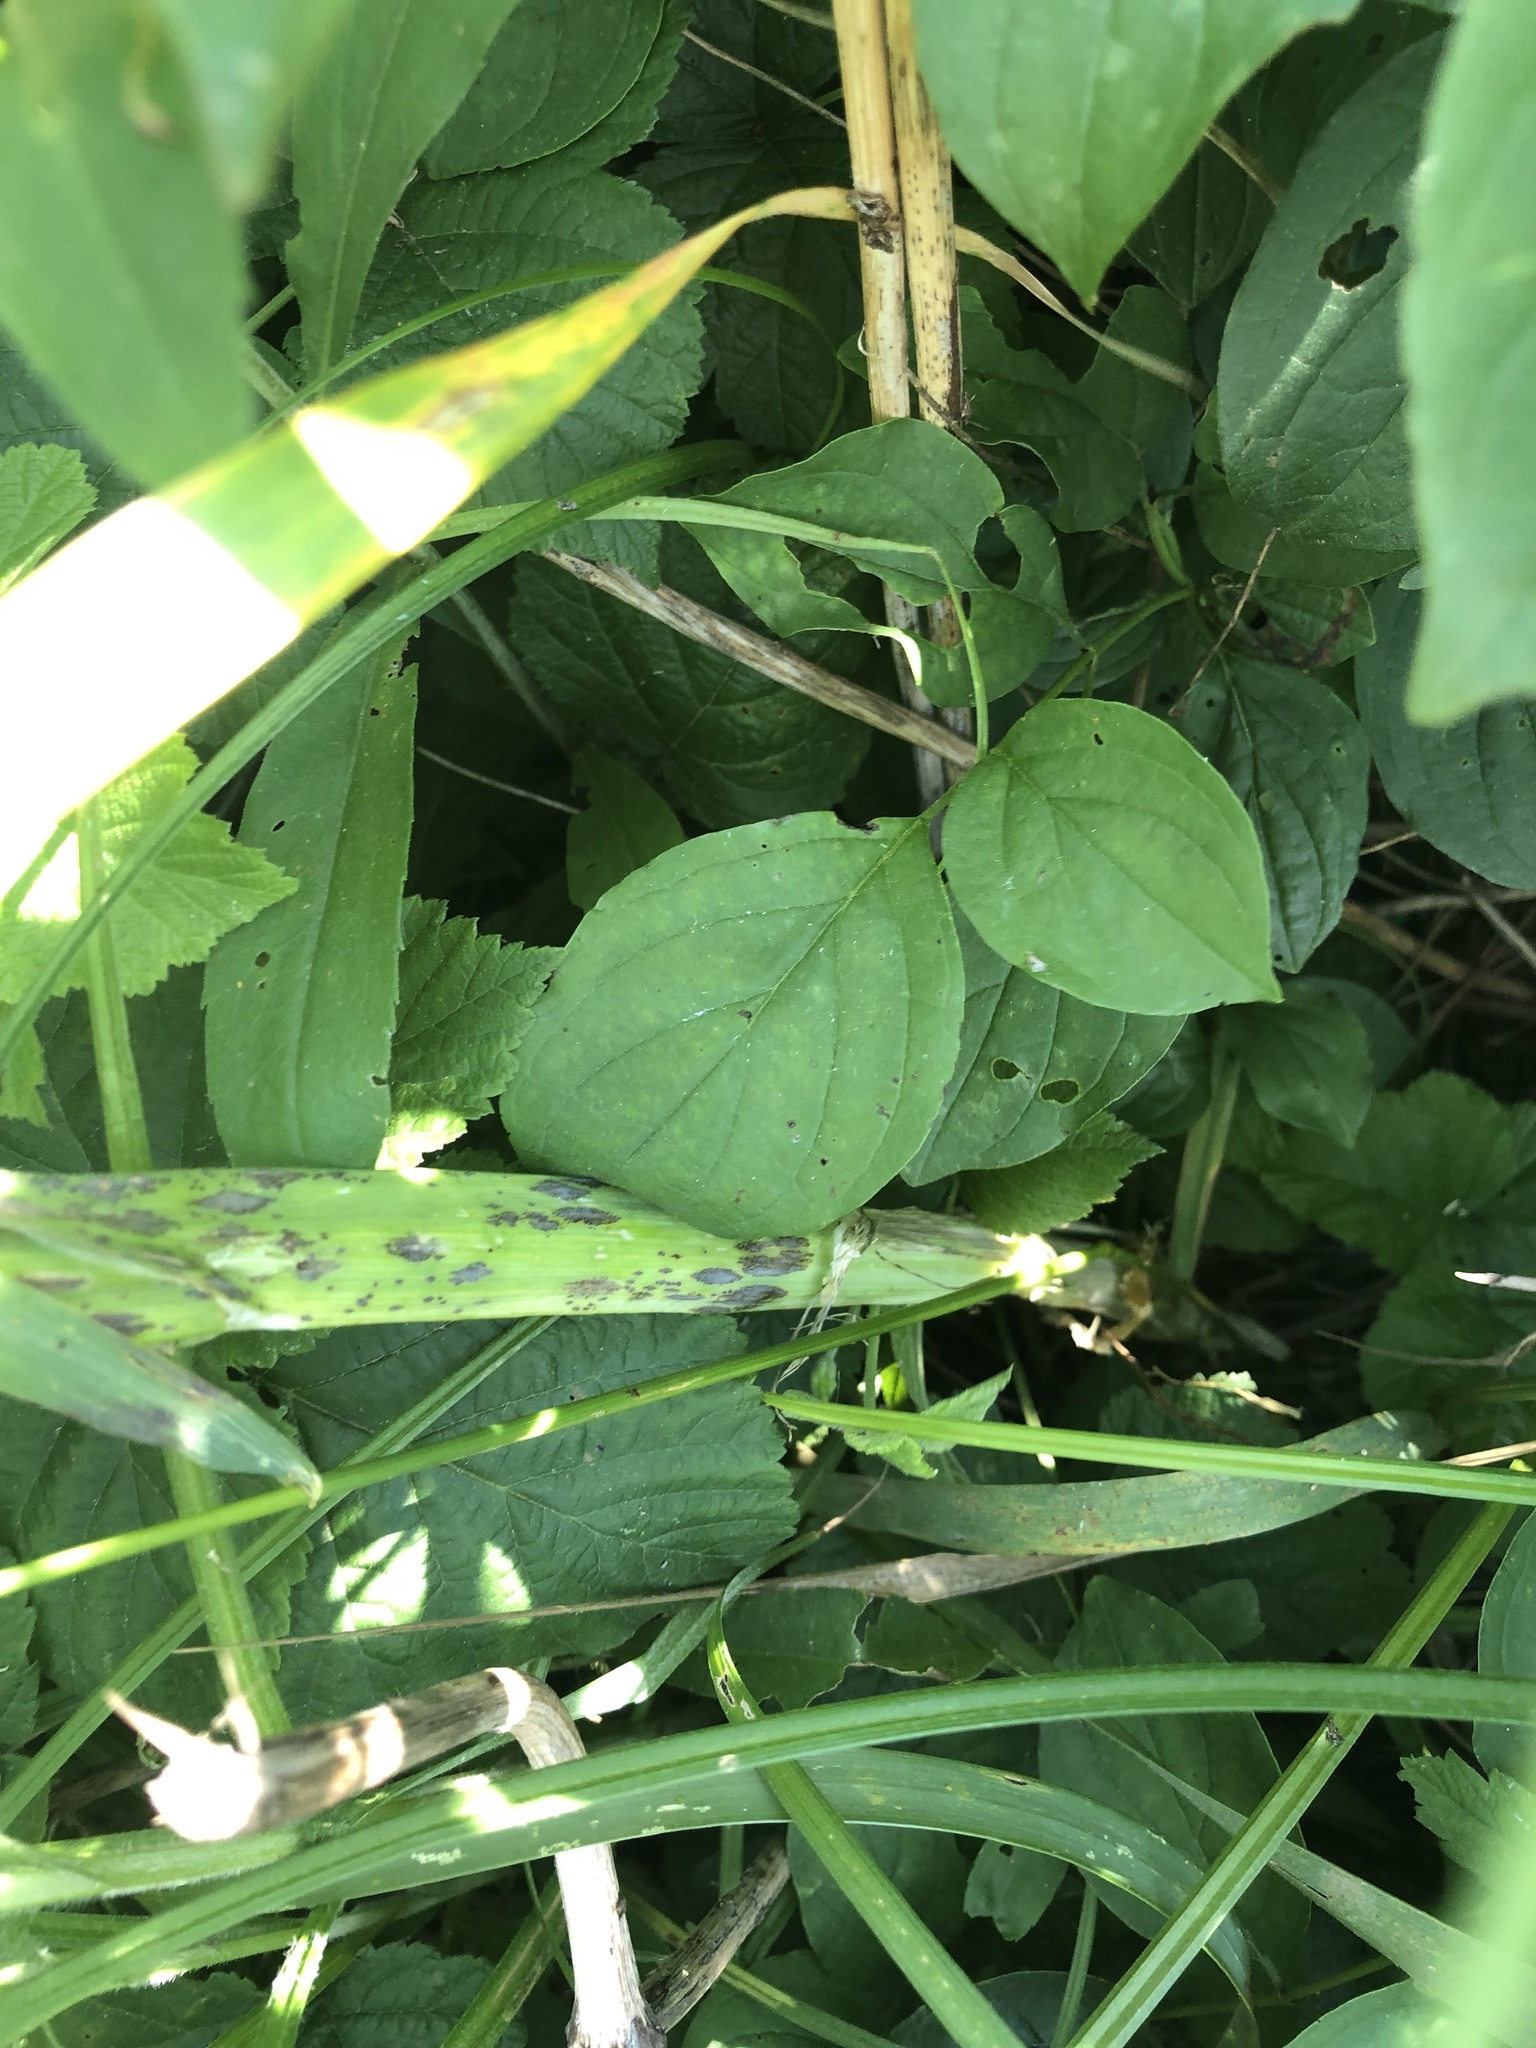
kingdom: Plantae
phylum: Tracheophyta
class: Liliopsida
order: Asparagales
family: Amaryllidaceae
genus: Allium
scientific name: Allium scorodoprasum
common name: Sand leek
